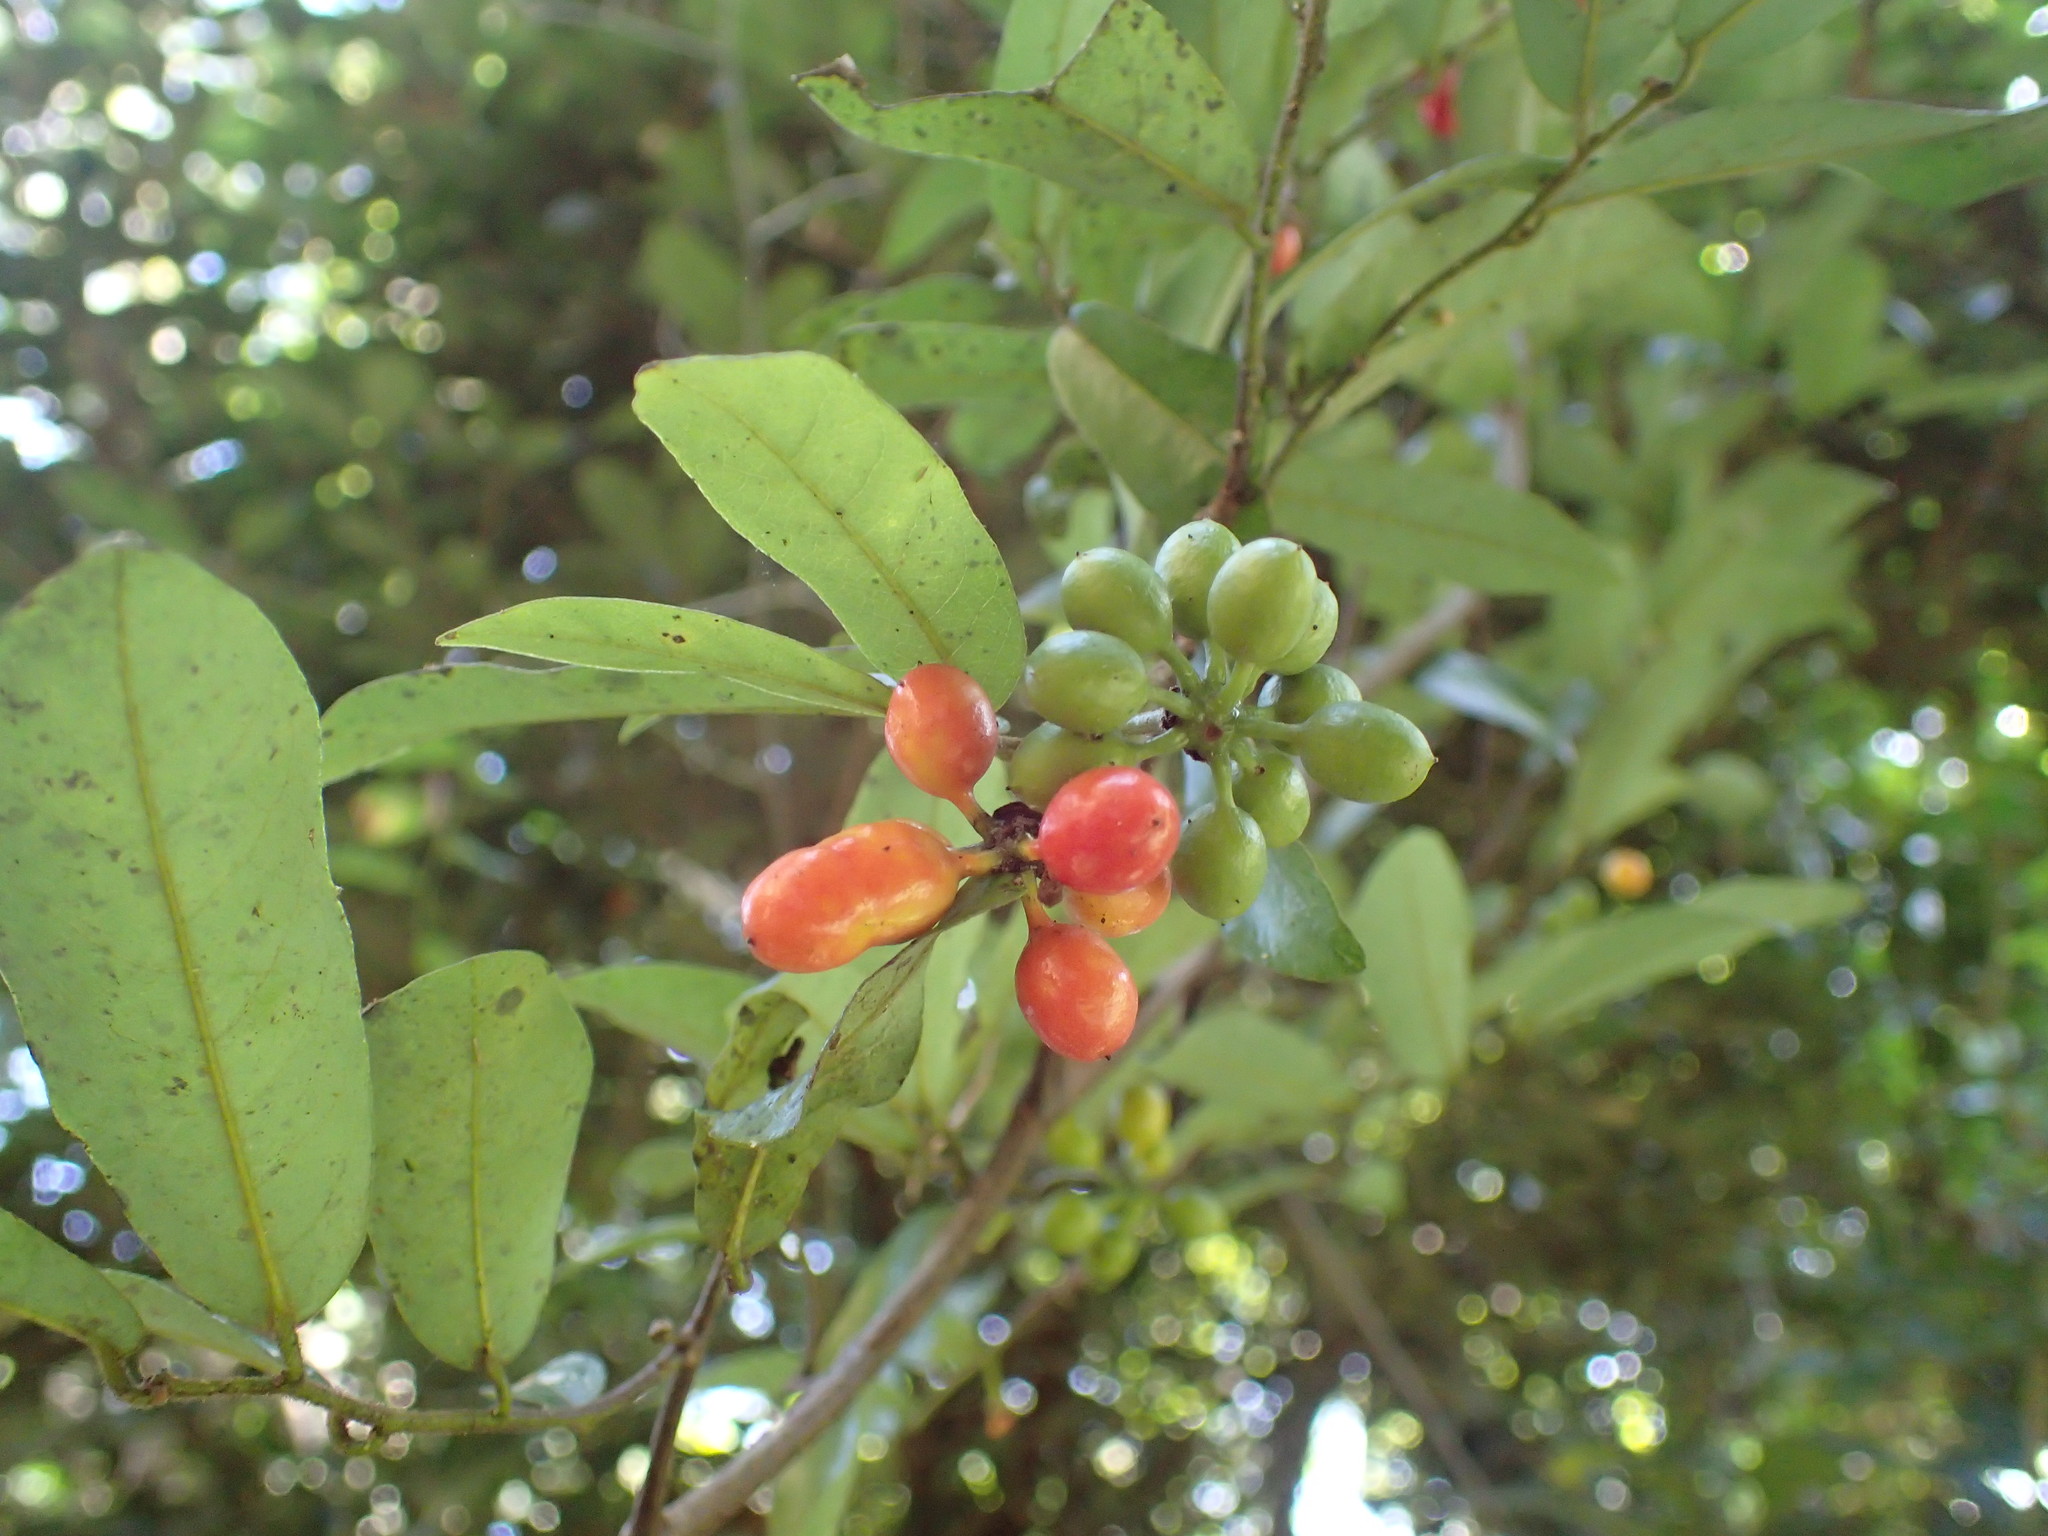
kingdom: Plantae
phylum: Tracheophyta
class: Magnoliopsida
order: Magnoliales
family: Annonaceae
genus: Monanthotaxis
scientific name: Monanthotaxis caffra
